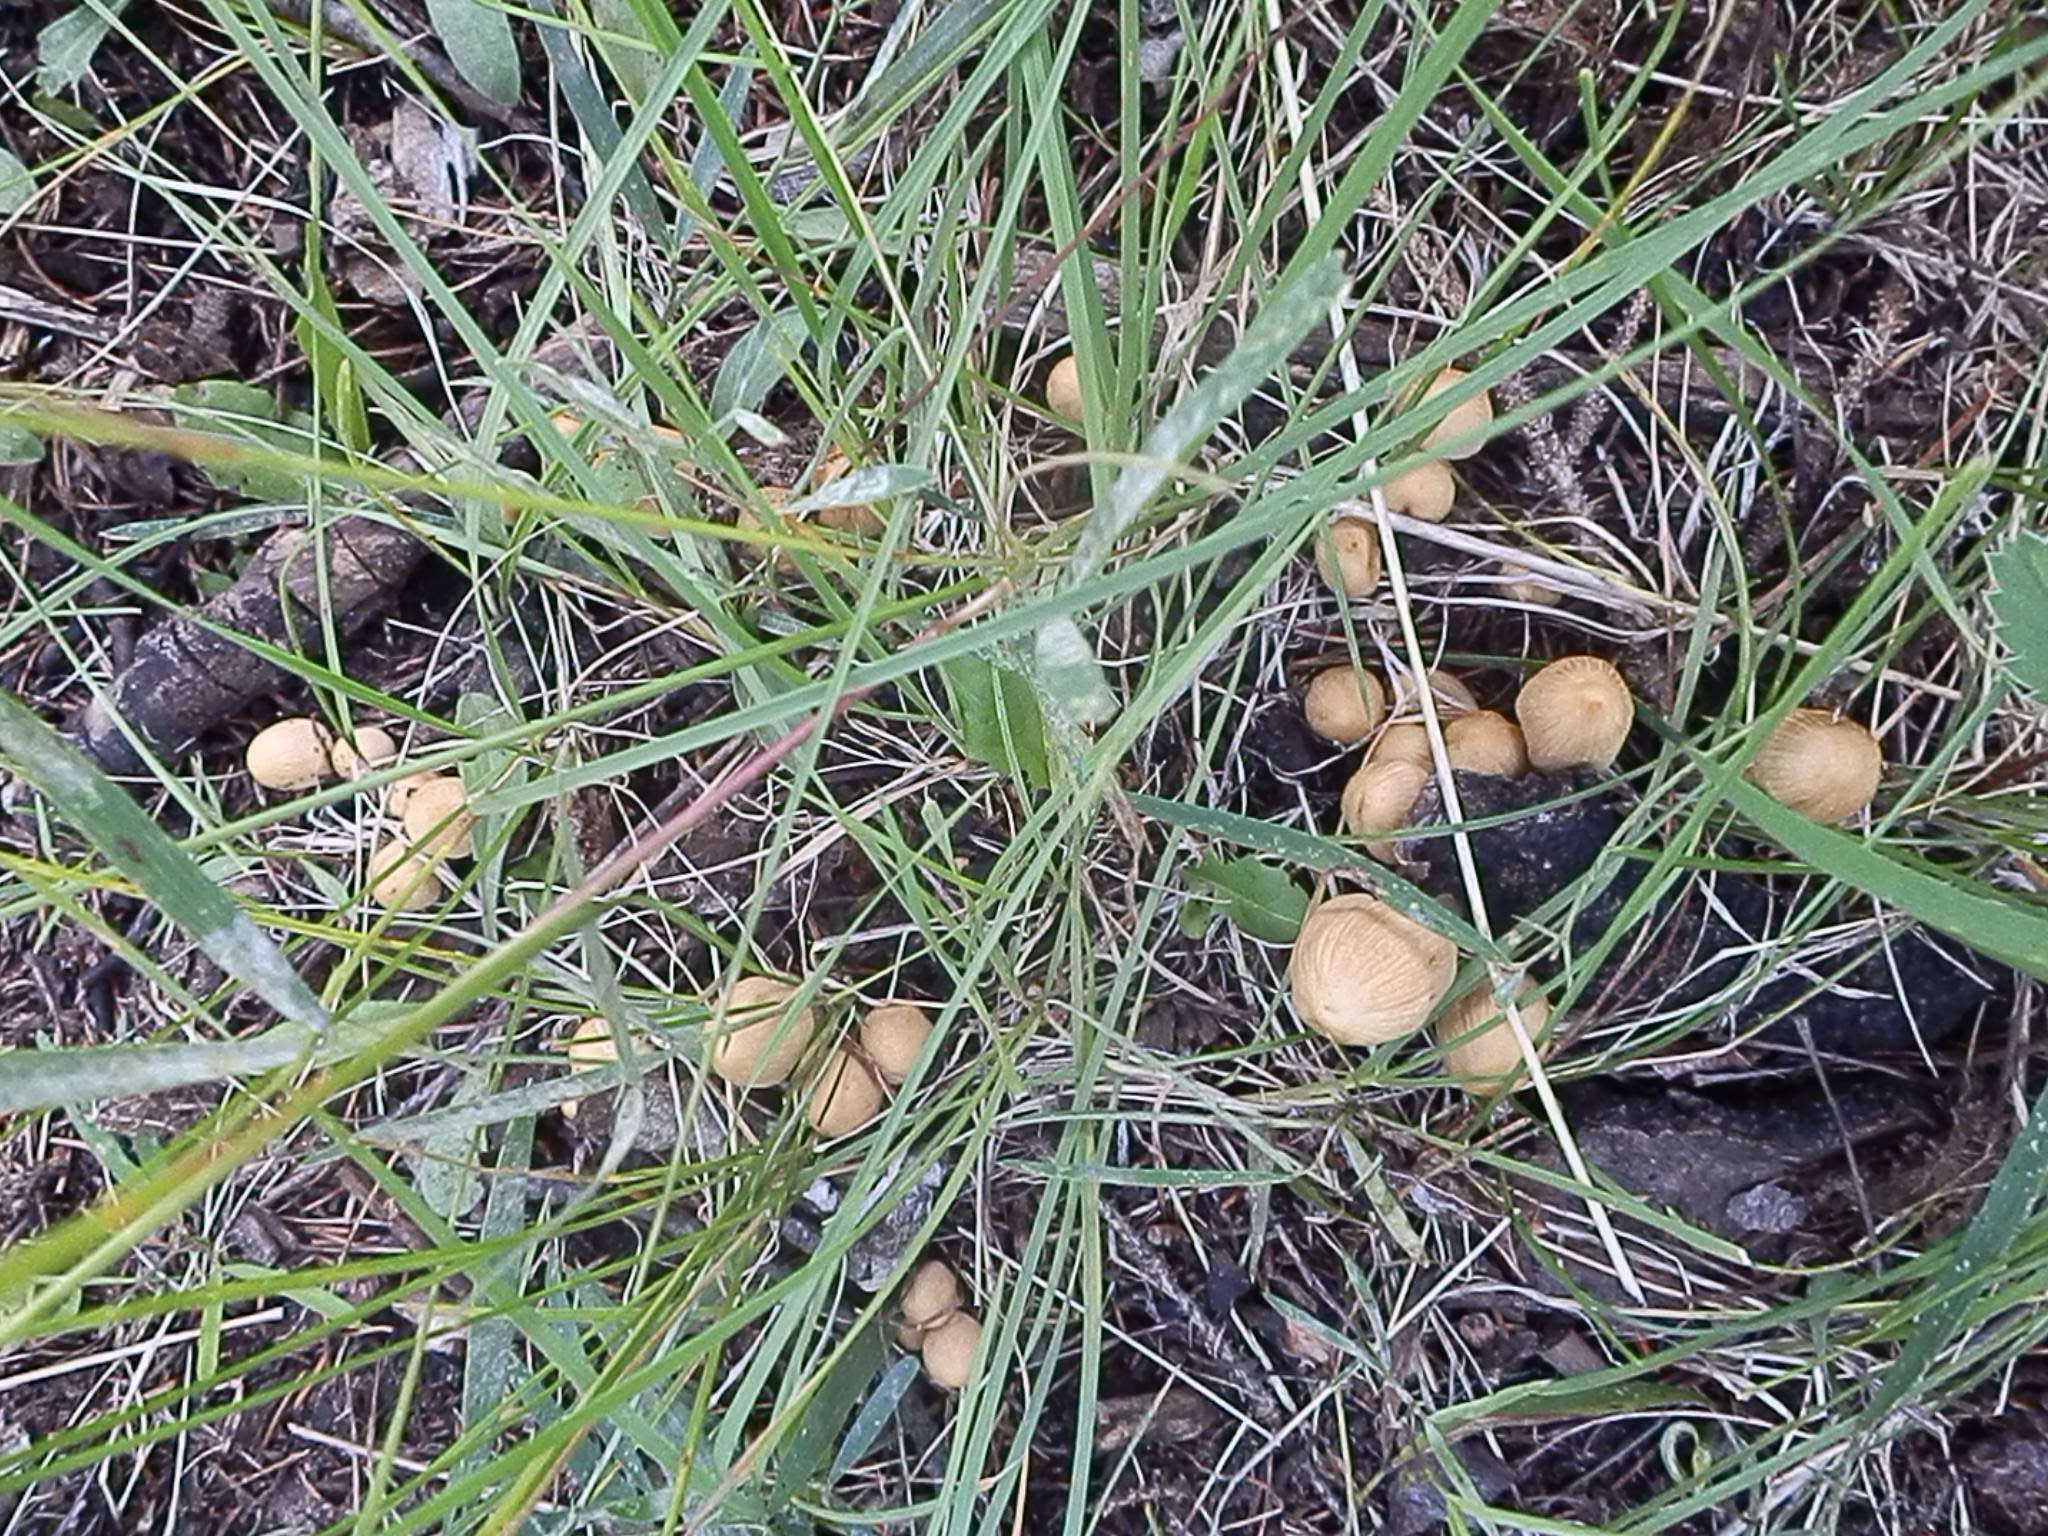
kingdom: Fungi
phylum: Basidiomycota
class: Agaricomycetes
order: Agaricales
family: Psathyrellaceae
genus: Coprinellus
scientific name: Coprinellus micaceus
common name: Glistening ink-cap
